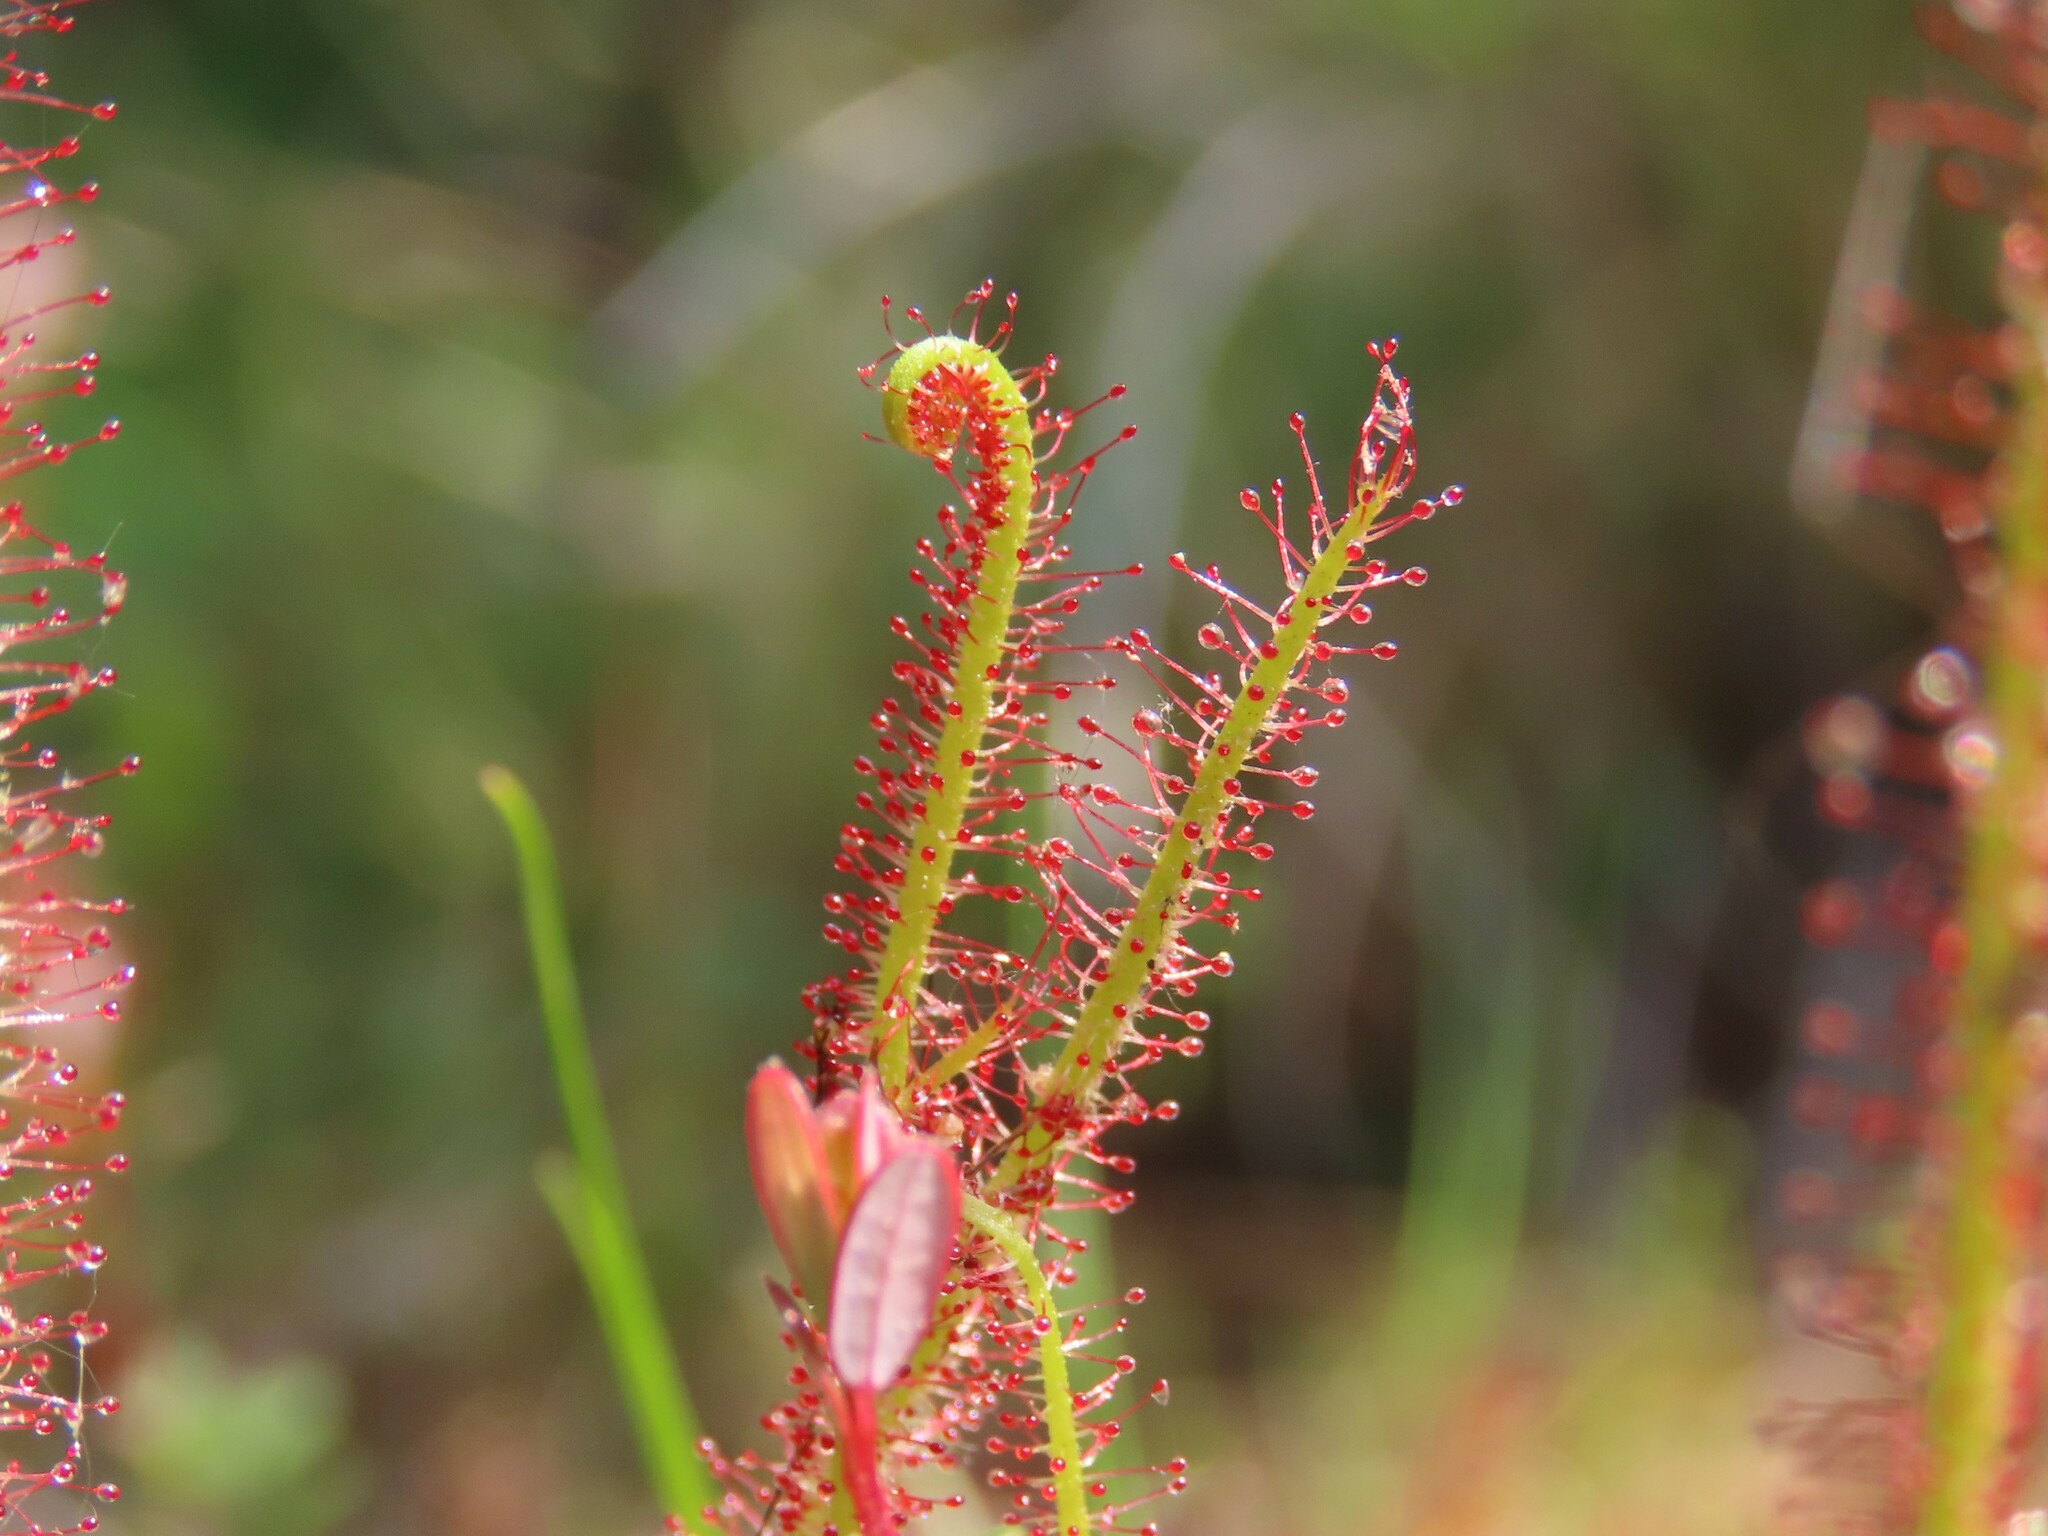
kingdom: Plantae
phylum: Tracheophyta
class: Magnoliopsida
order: Caryophyllales
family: Droseraceae
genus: Drosera
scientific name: Drosera filiformis
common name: Dew-thread
